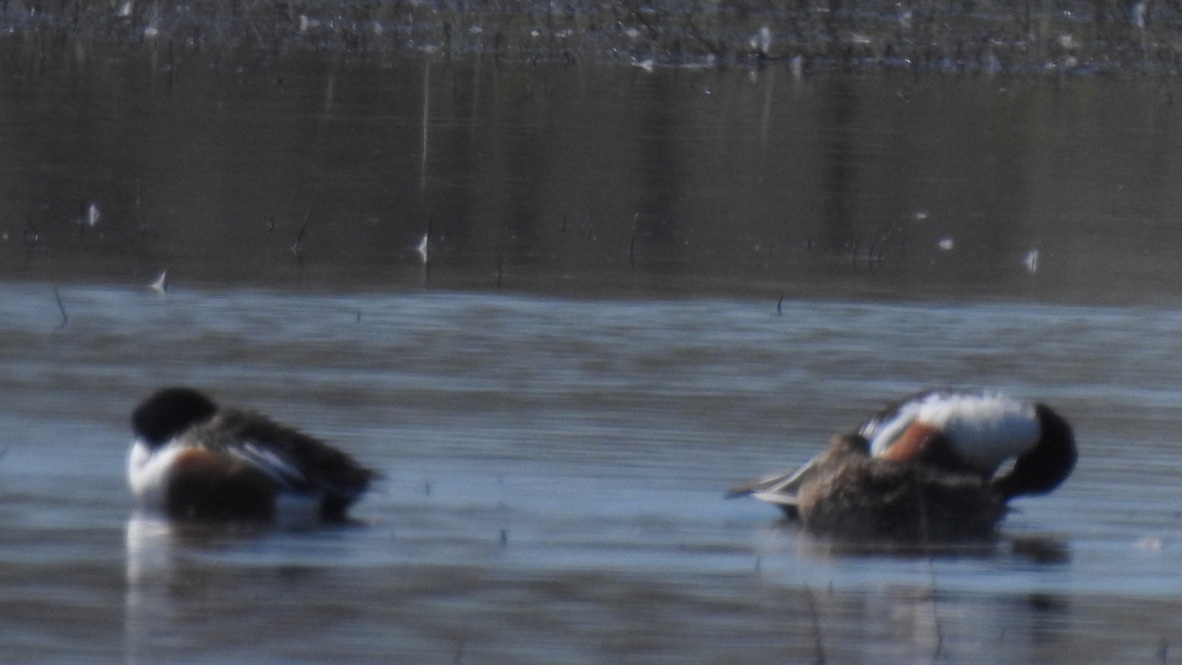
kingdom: Animalia
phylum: Chordata
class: Aves
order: Anseriformes
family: Anatidae
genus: Spatula
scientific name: Spatula clypeata
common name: Northern shoveler
